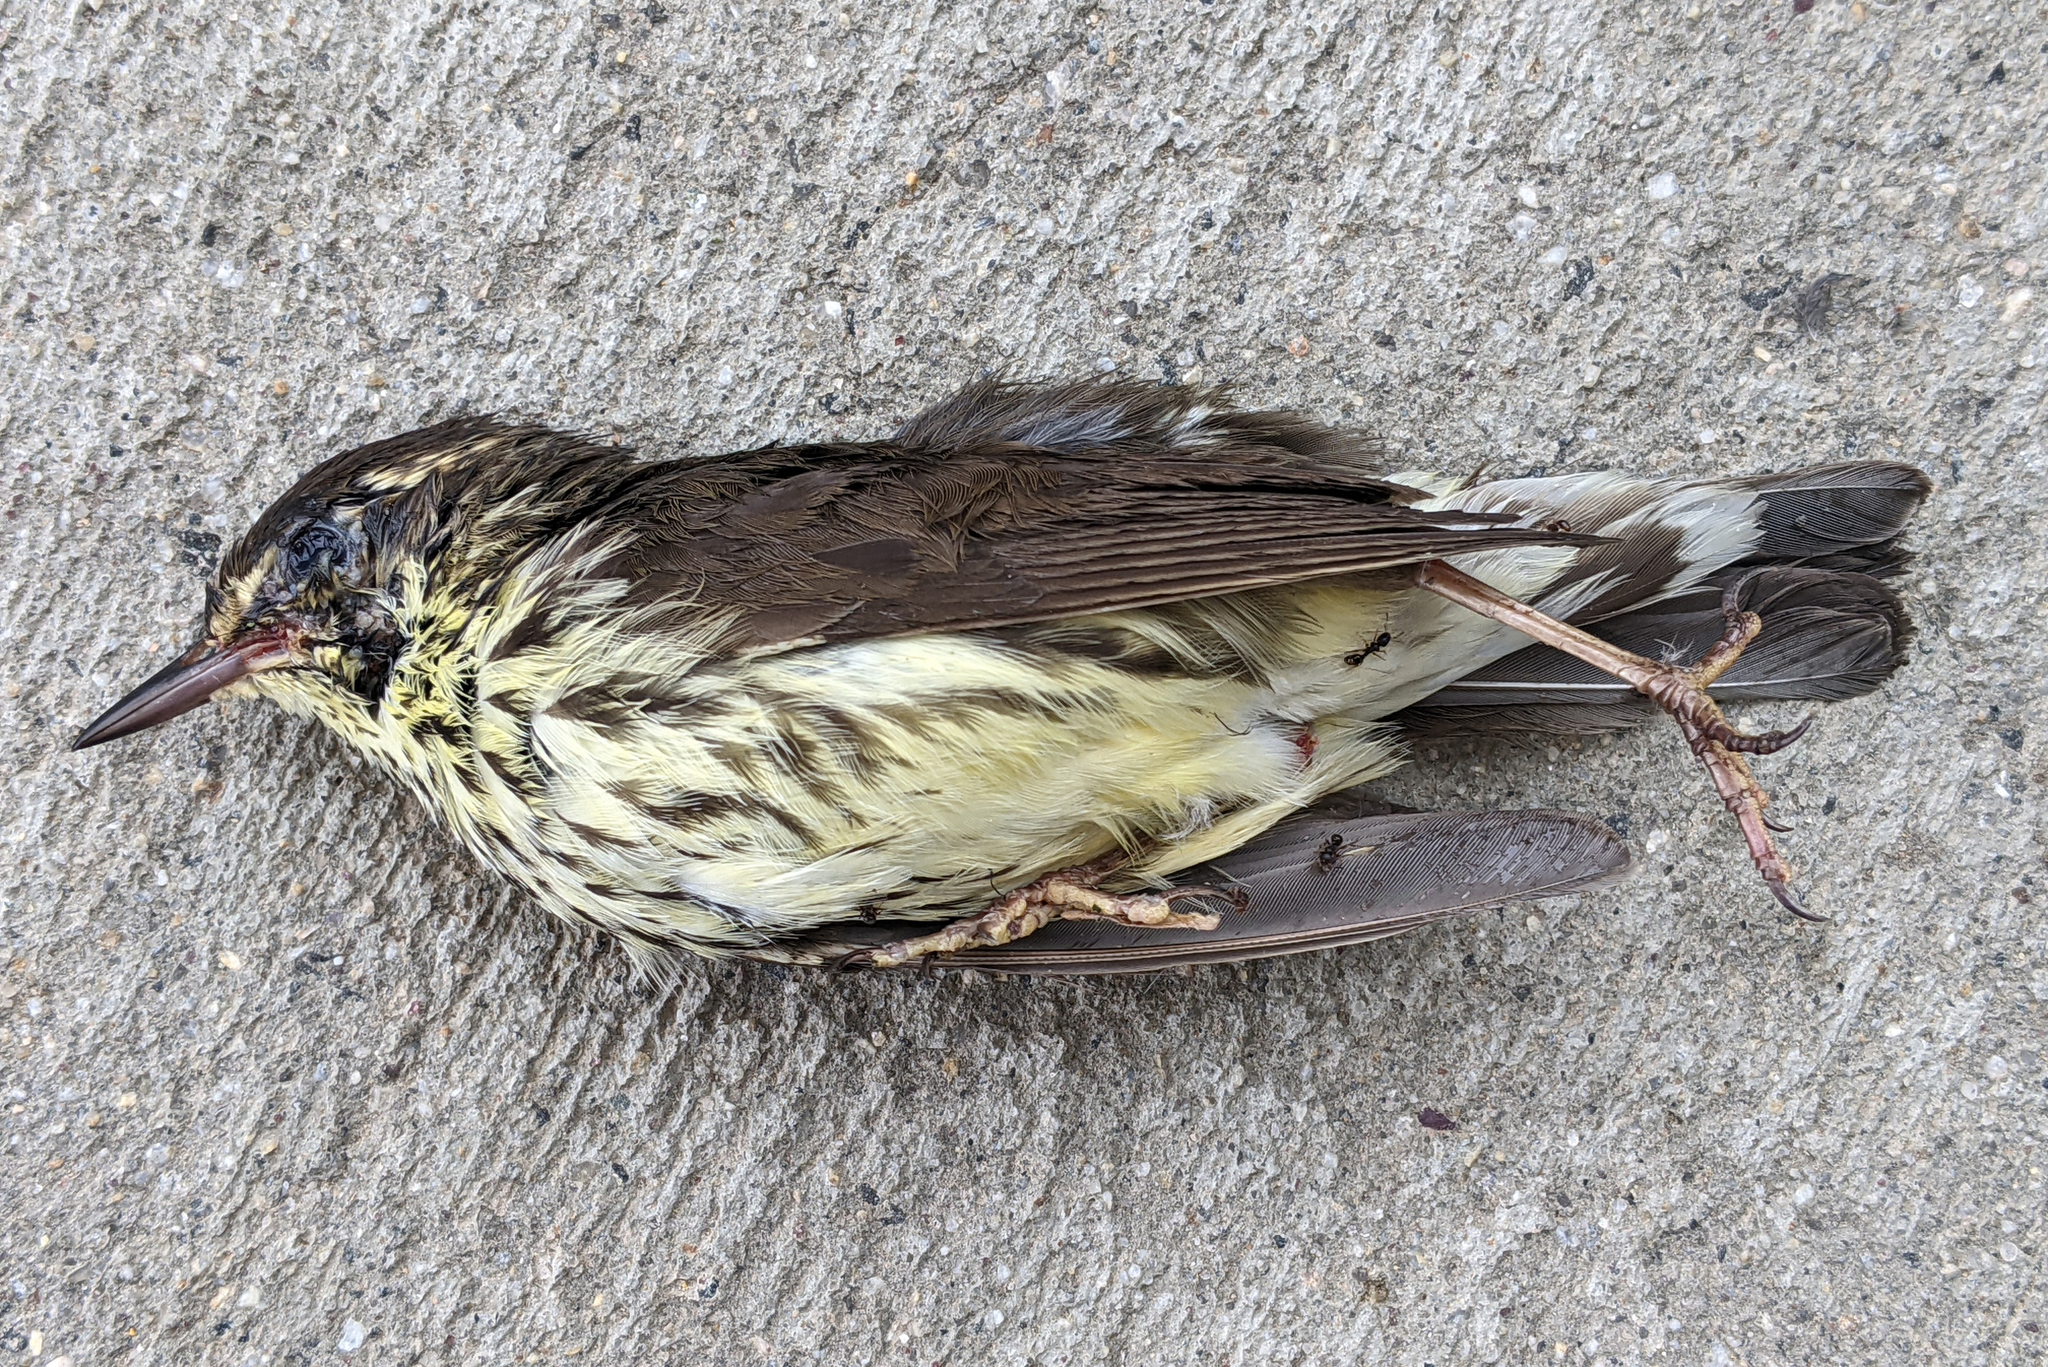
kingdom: Animalia
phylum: Chordata
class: Aves
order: Passeriformes
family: Parulidae
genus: Parkesia
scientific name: Parkesia noveboracensis
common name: Northern waterthrush
